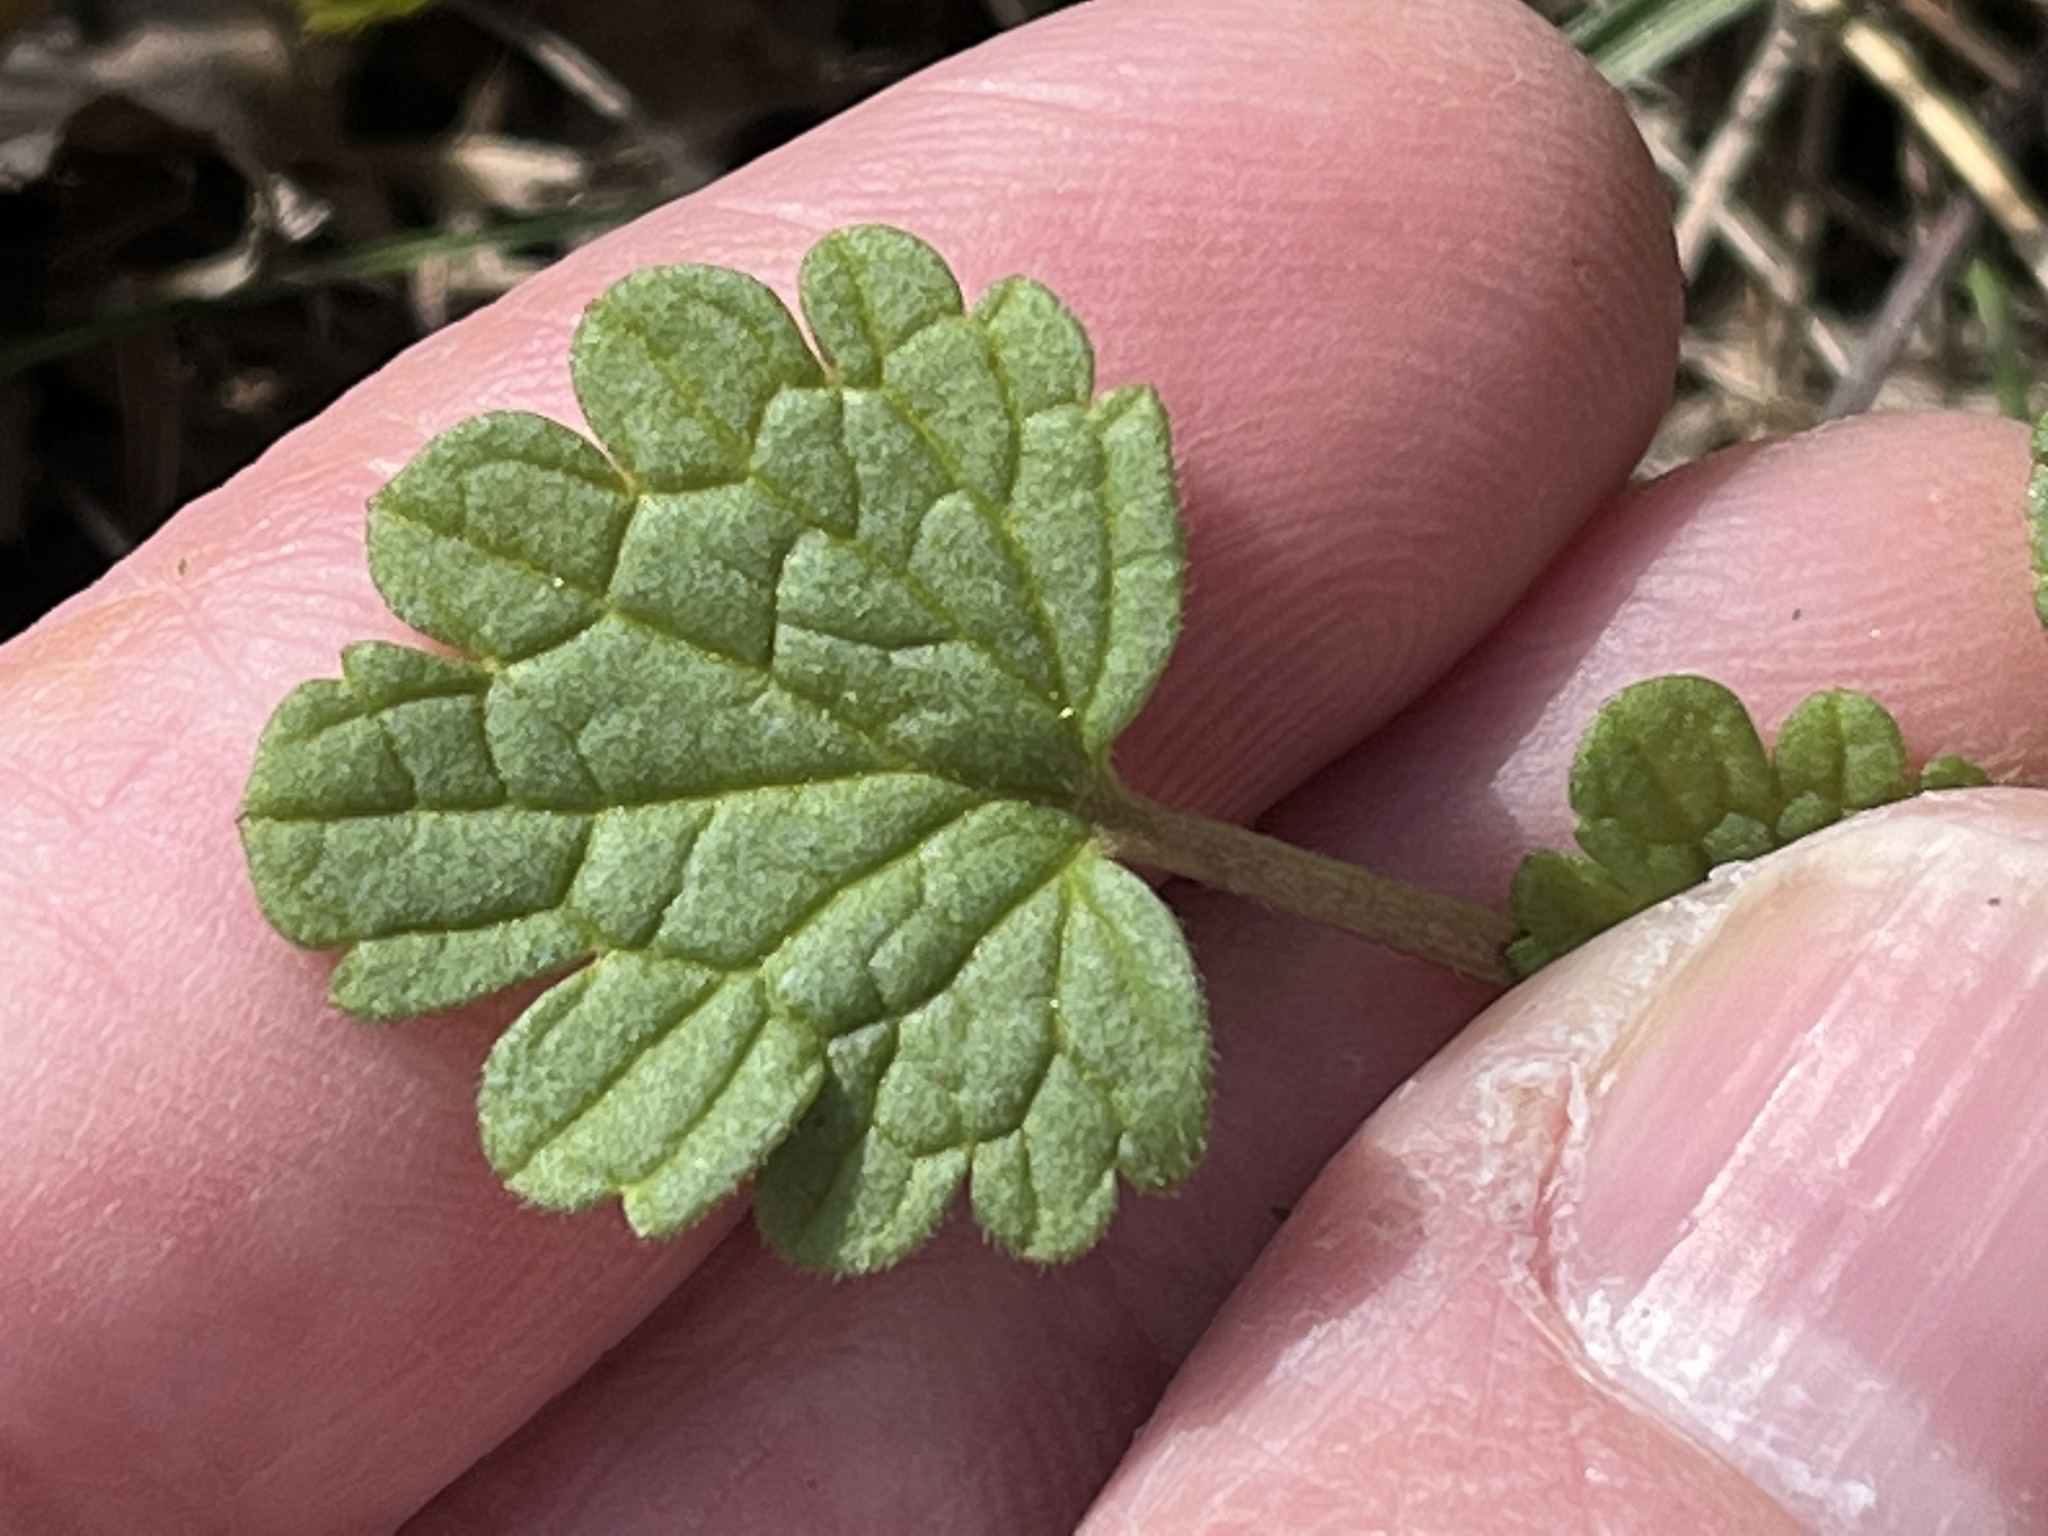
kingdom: Plantae
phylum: Tracheophyta
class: Magnoliopsida
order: Lamiales
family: Lamiaceae
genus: Lamium
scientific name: Lamium amplexicaule
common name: Henbit dead-nettle
